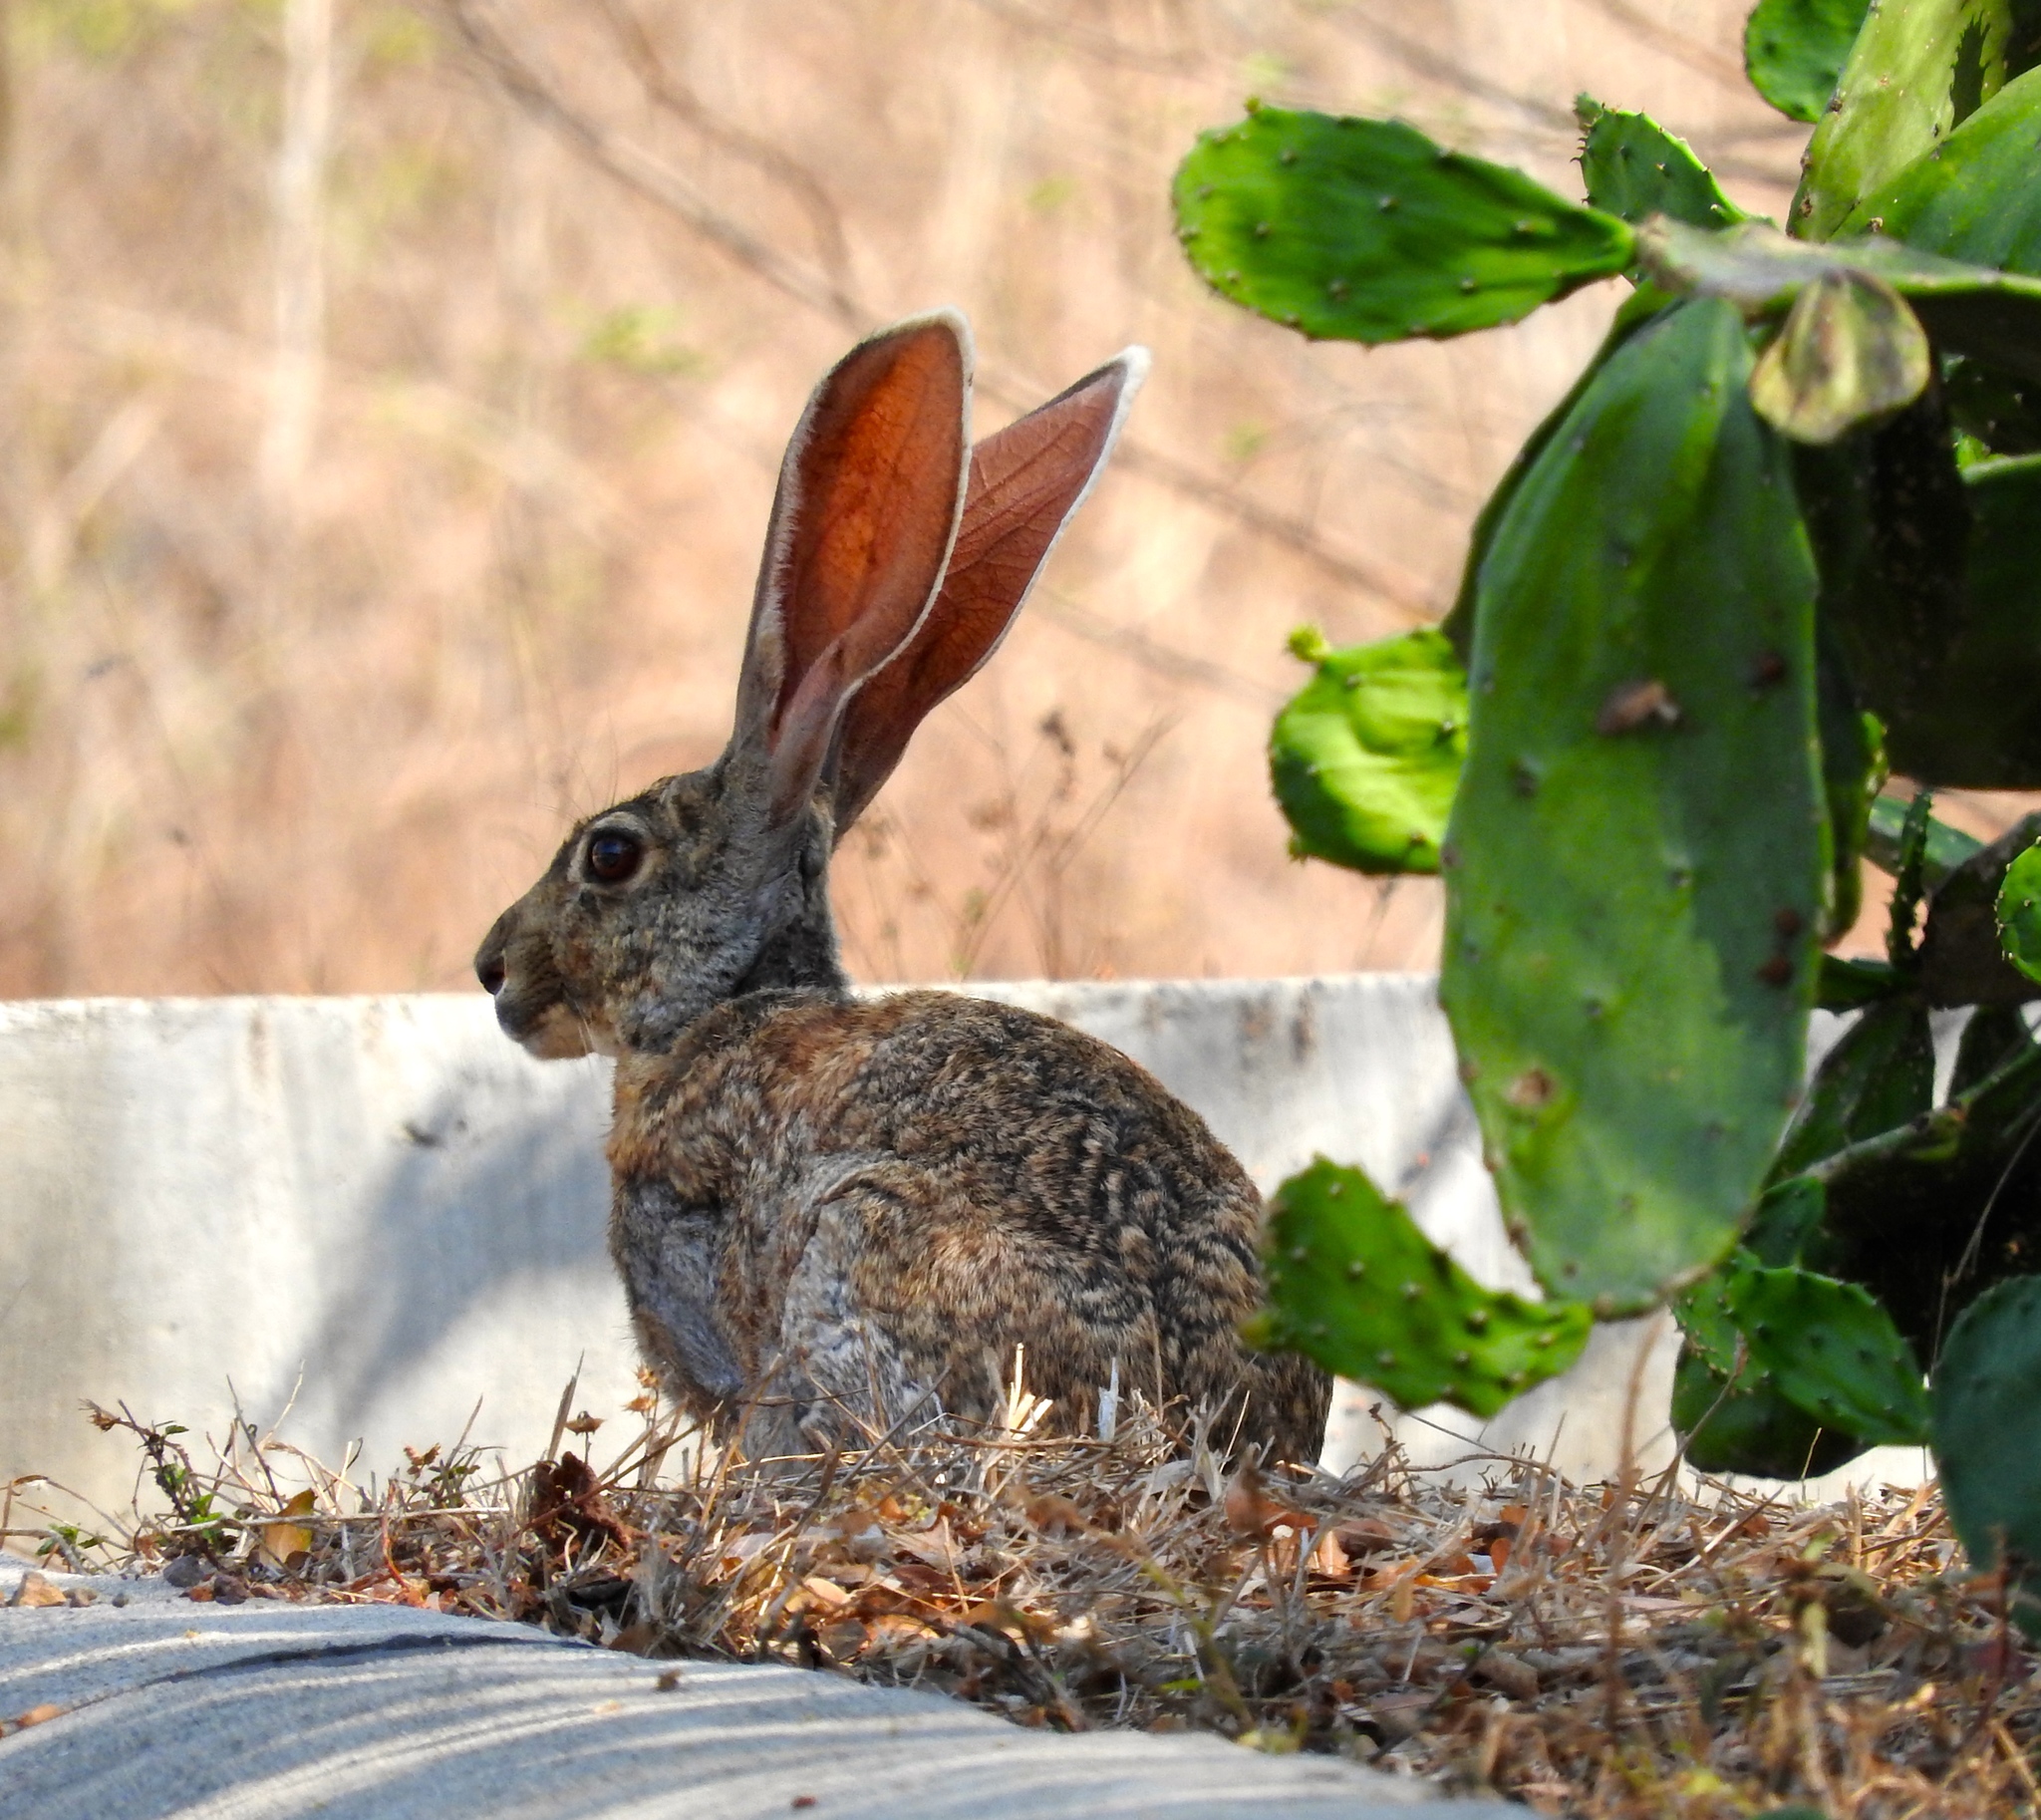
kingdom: Animalia
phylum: Chordata
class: Mammalia
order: Lagomorpha
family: Leporidae
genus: Lepus
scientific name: Lepus alleni
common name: Antelope jackrabbit
